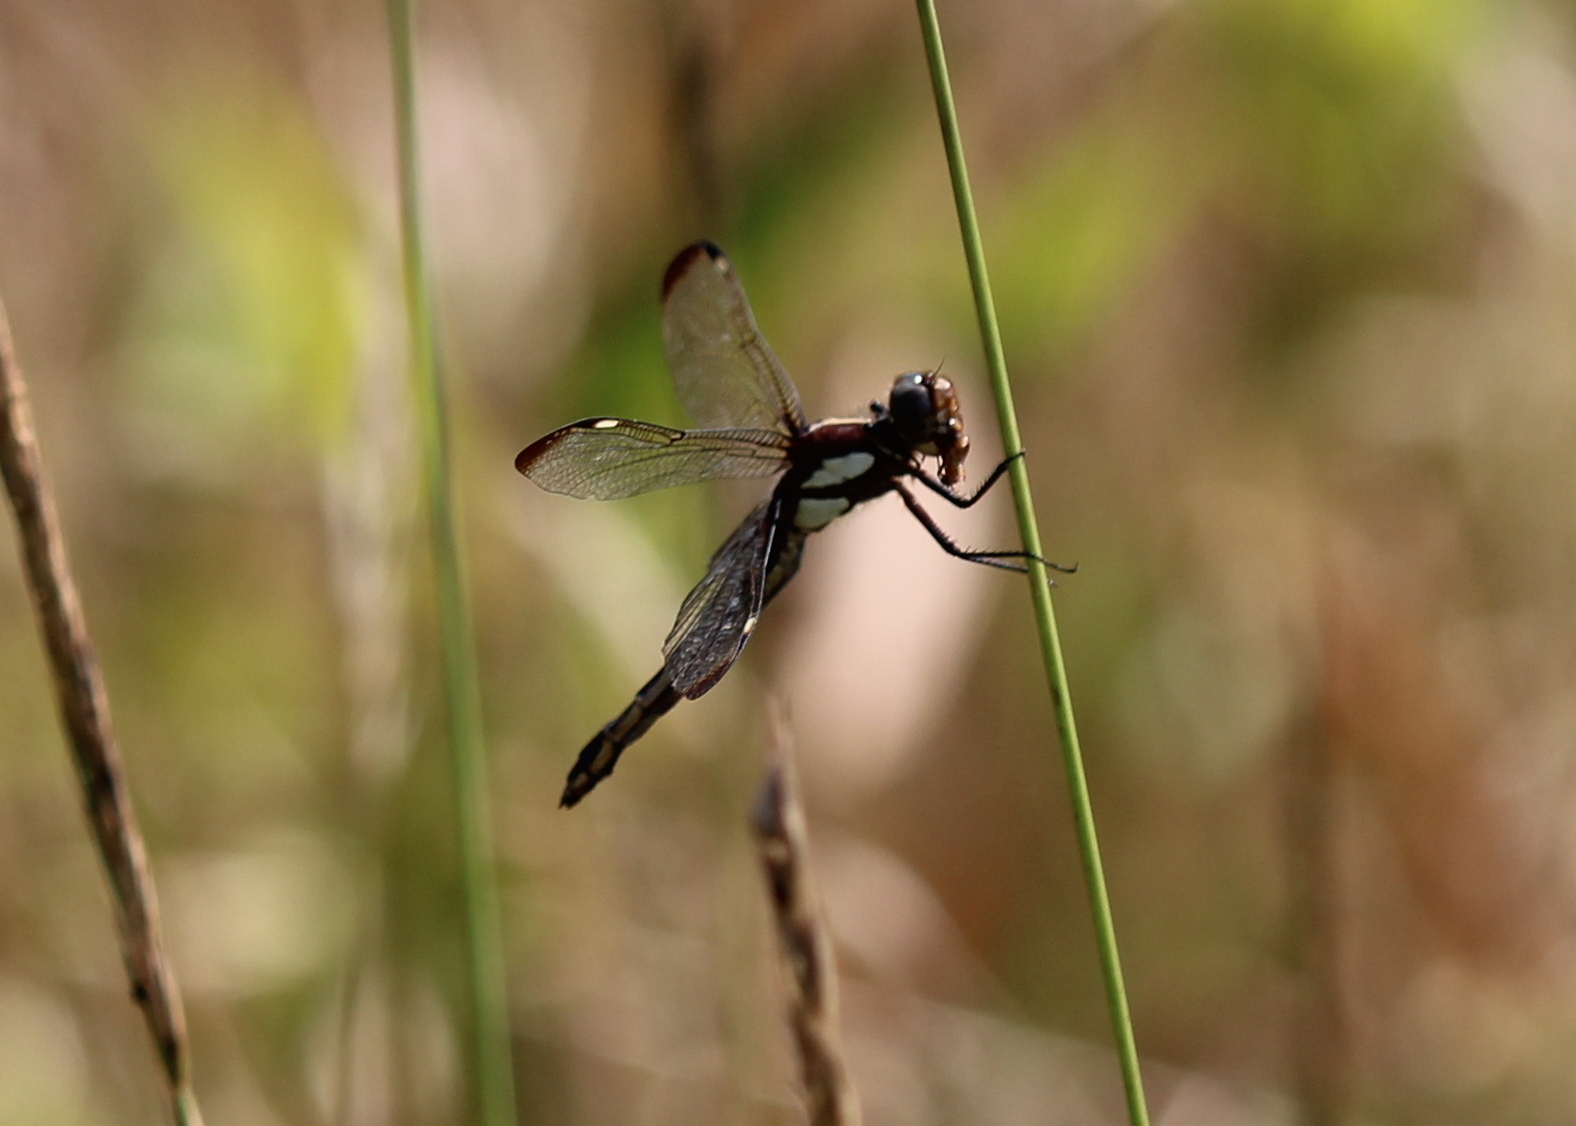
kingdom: Animalia
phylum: Arthropoda
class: Insecta
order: Odonata
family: Libellulidae
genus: Libellula
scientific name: Libellula cyanea
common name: Spangled skimmer
